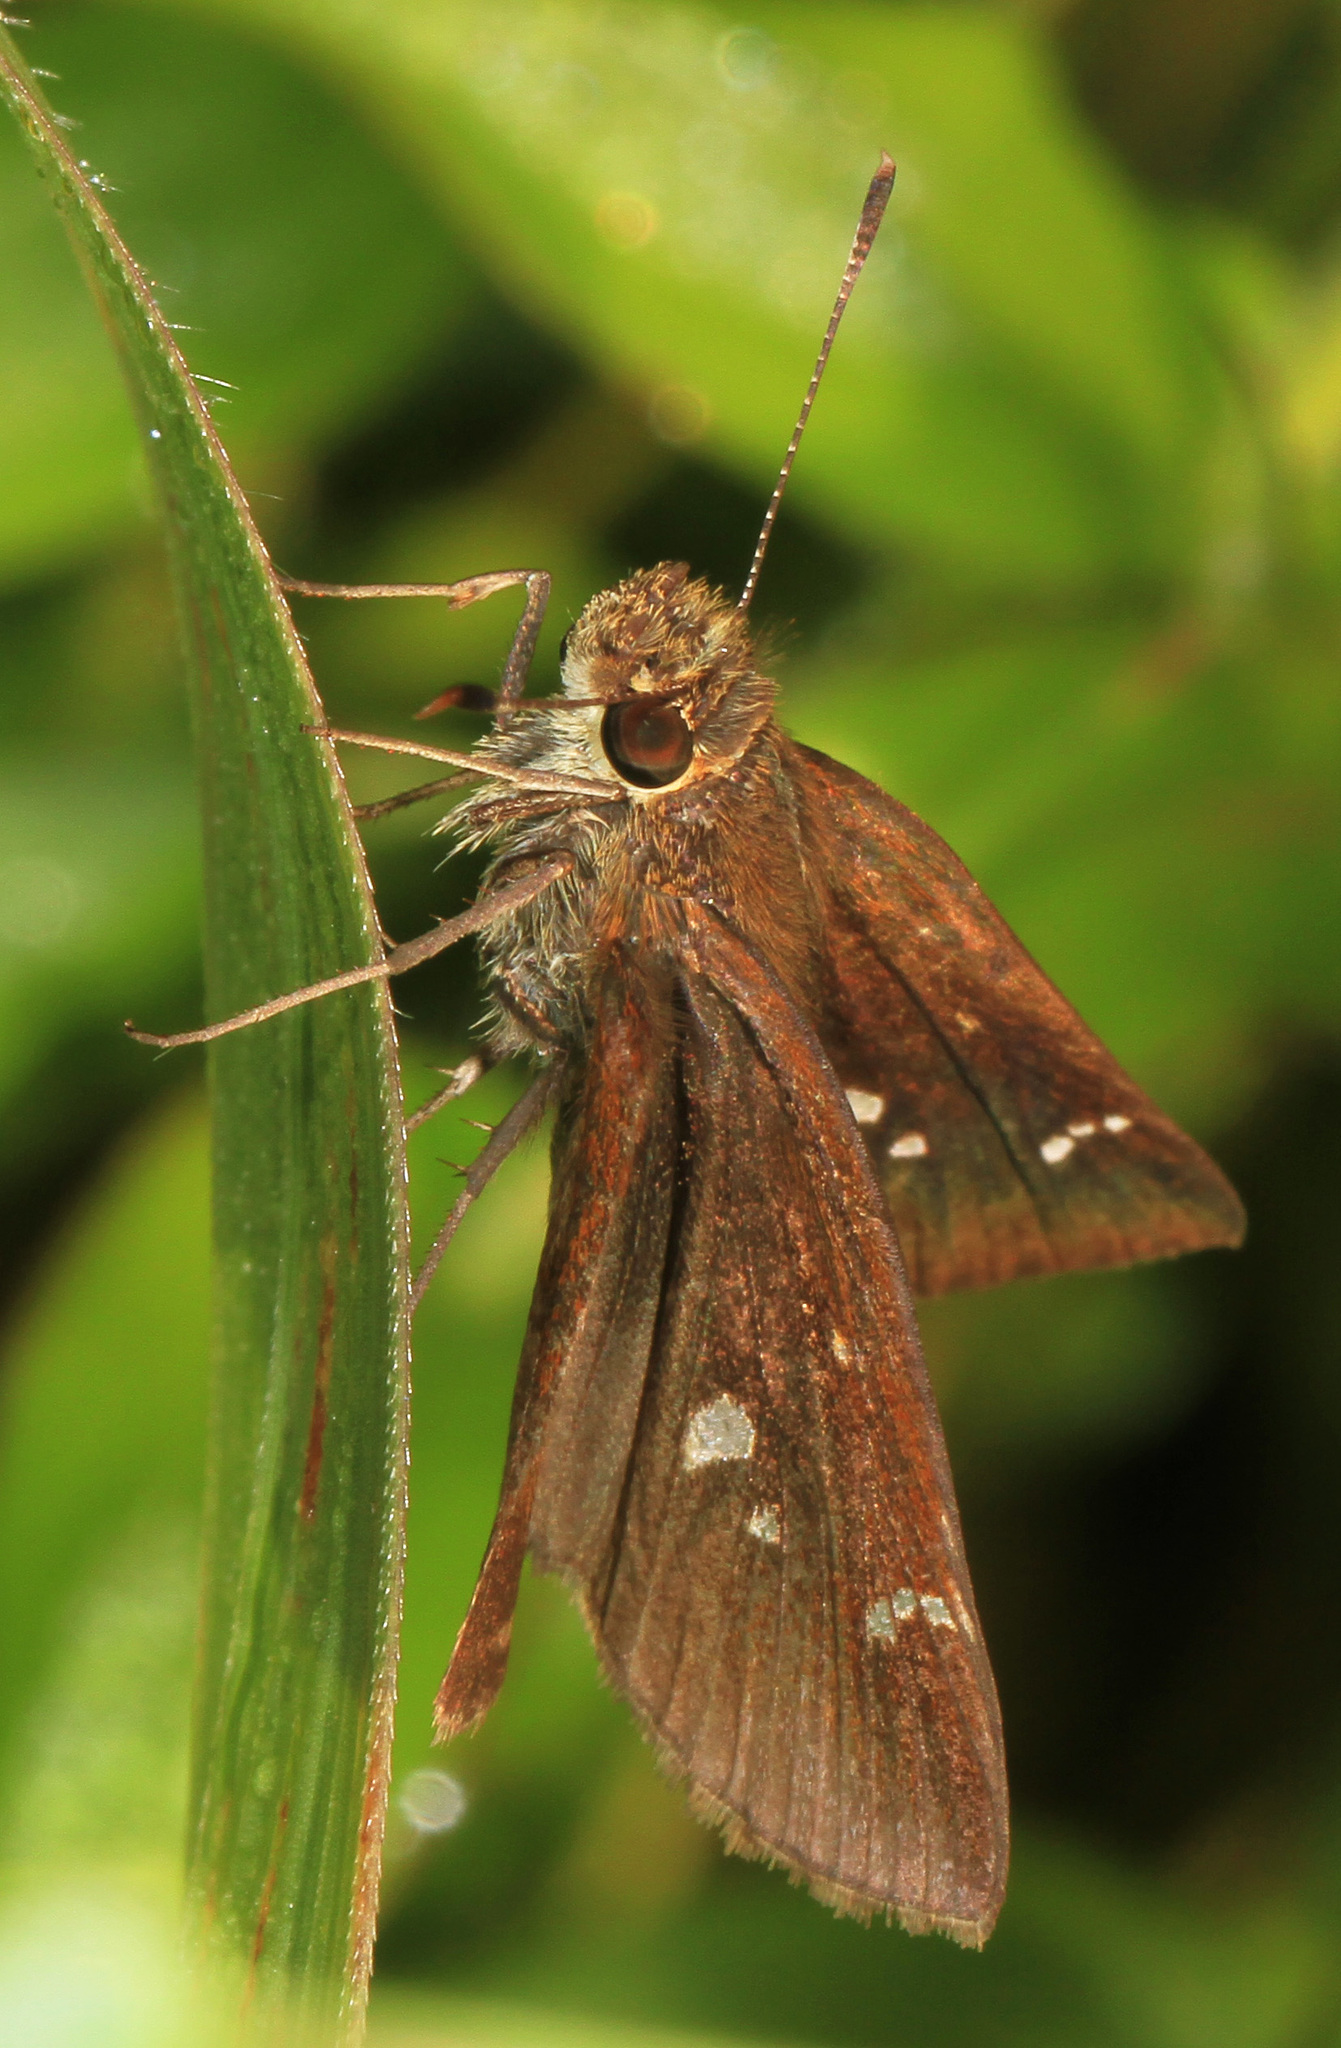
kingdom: Animalia
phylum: Arthropoda
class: Insecta
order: Lepidoptera
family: Hesperiidae
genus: Lerema
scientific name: Lerema accius
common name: Clouded skipper
